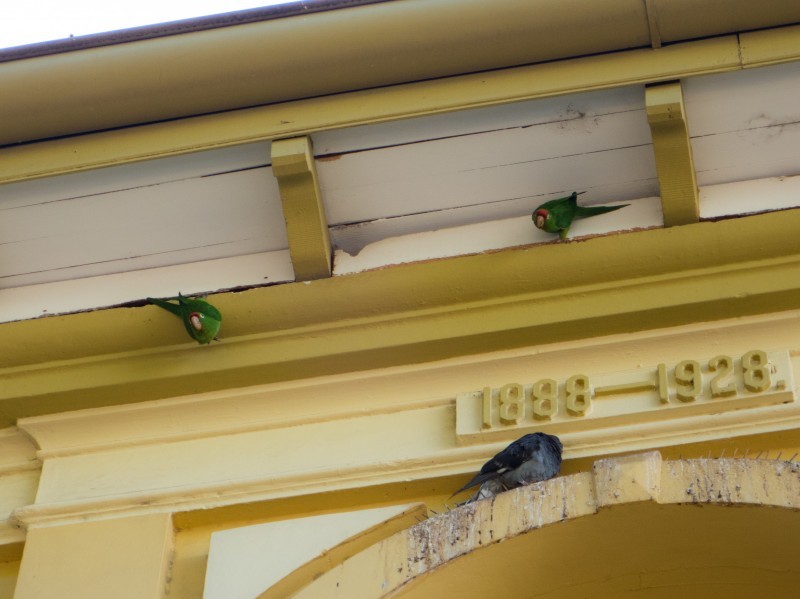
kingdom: Animalia
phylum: Chordata
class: Aves
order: Psittaciformes
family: Psittacidae
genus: Aratinga
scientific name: Aratinga finschi
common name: Crimson-fronted parakeet
